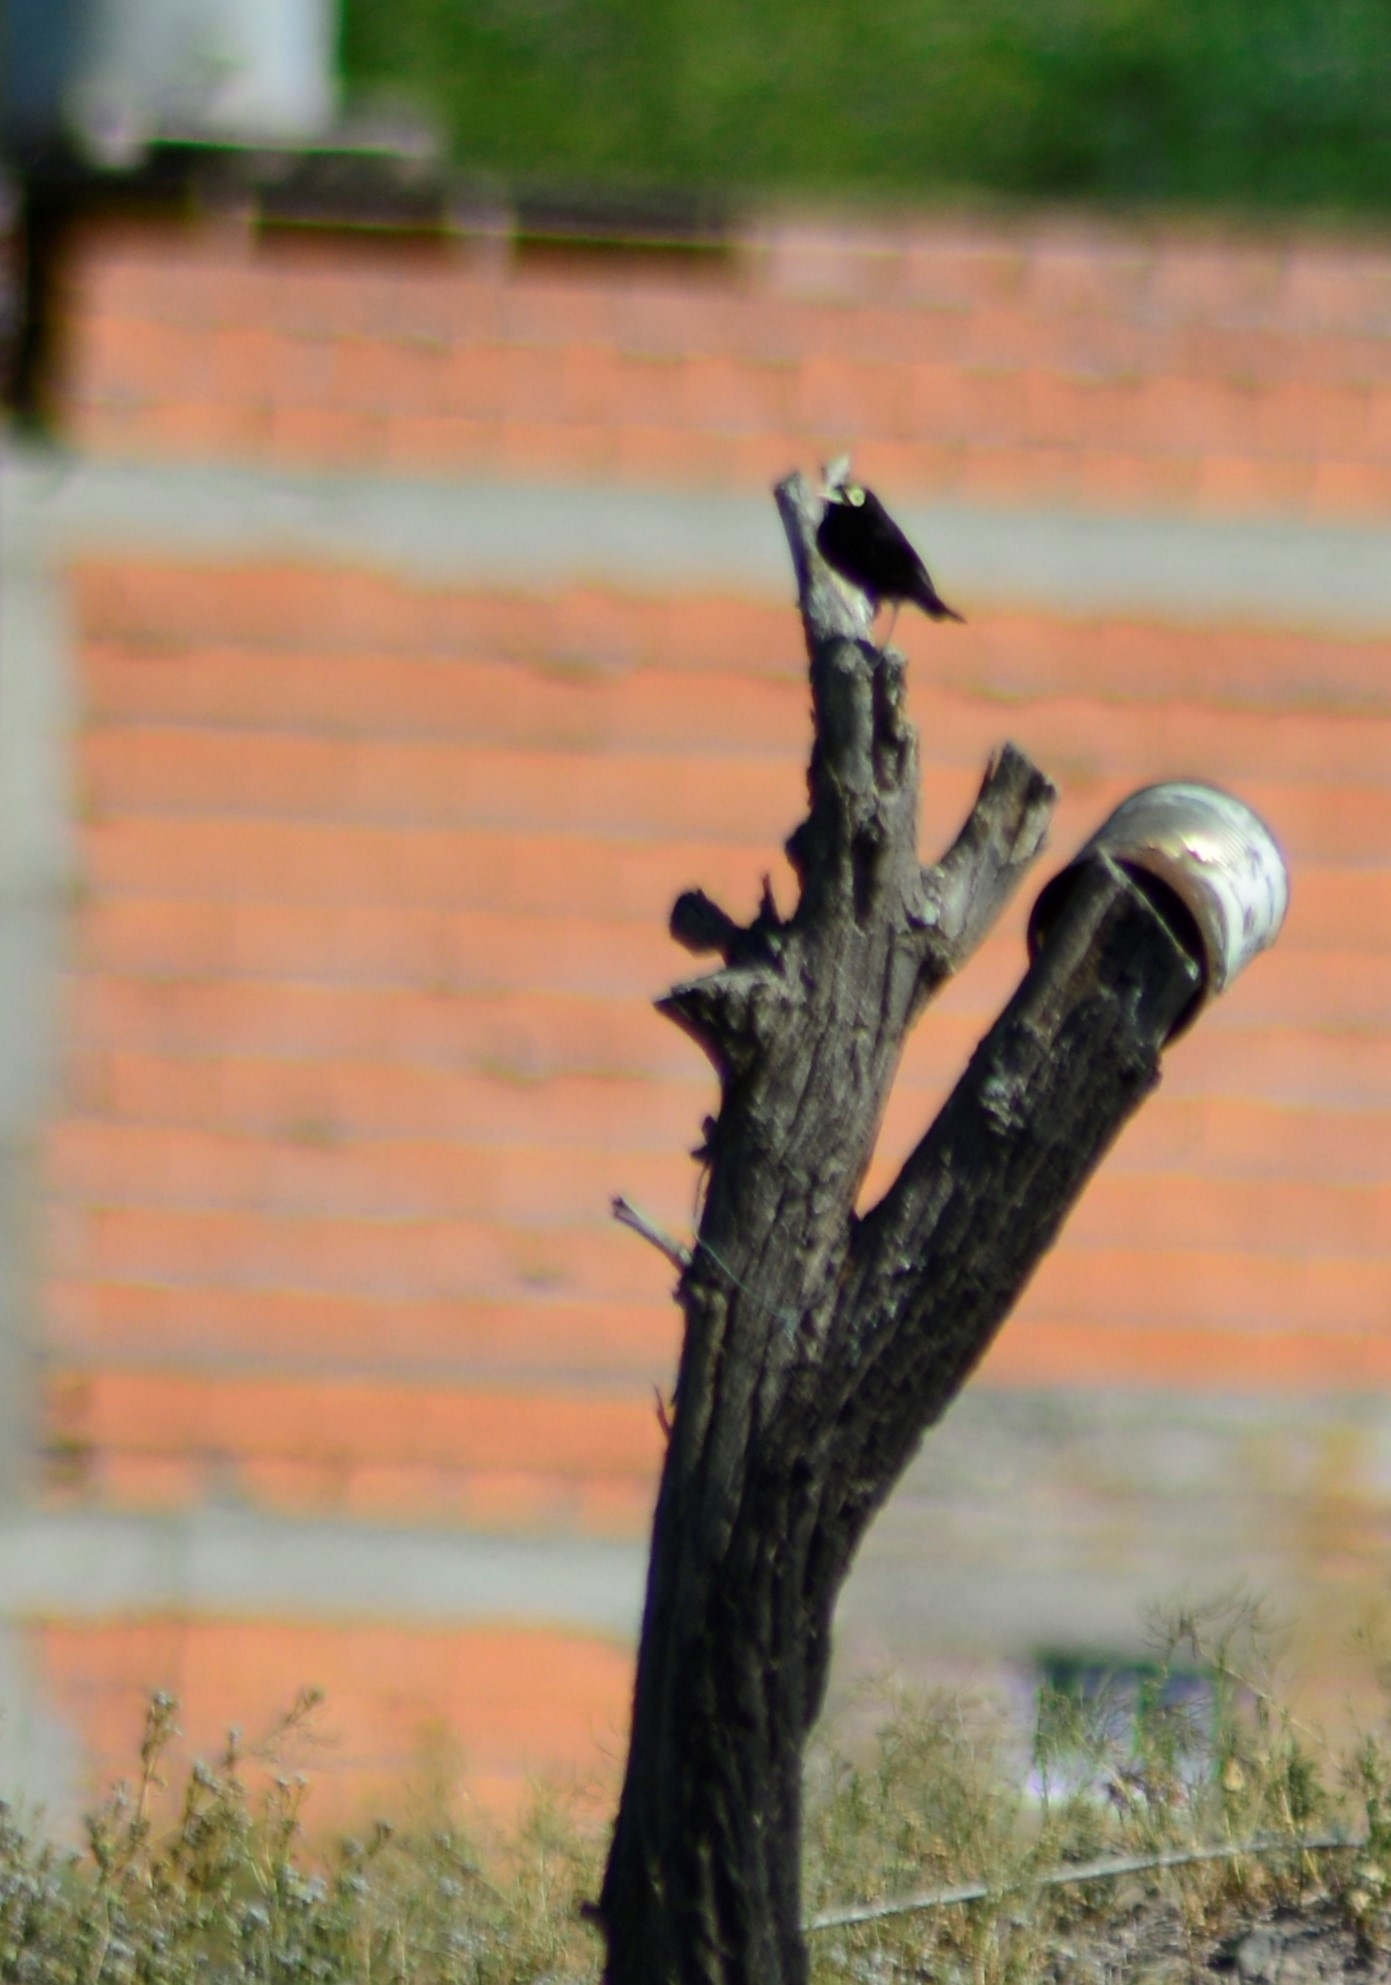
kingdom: Animalia
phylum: Chordata
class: Aves
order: Passeriformes
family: Tyrannidae
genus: Hymenops
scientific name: Hymenops perspicillatus
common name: Spectacled tyrant
